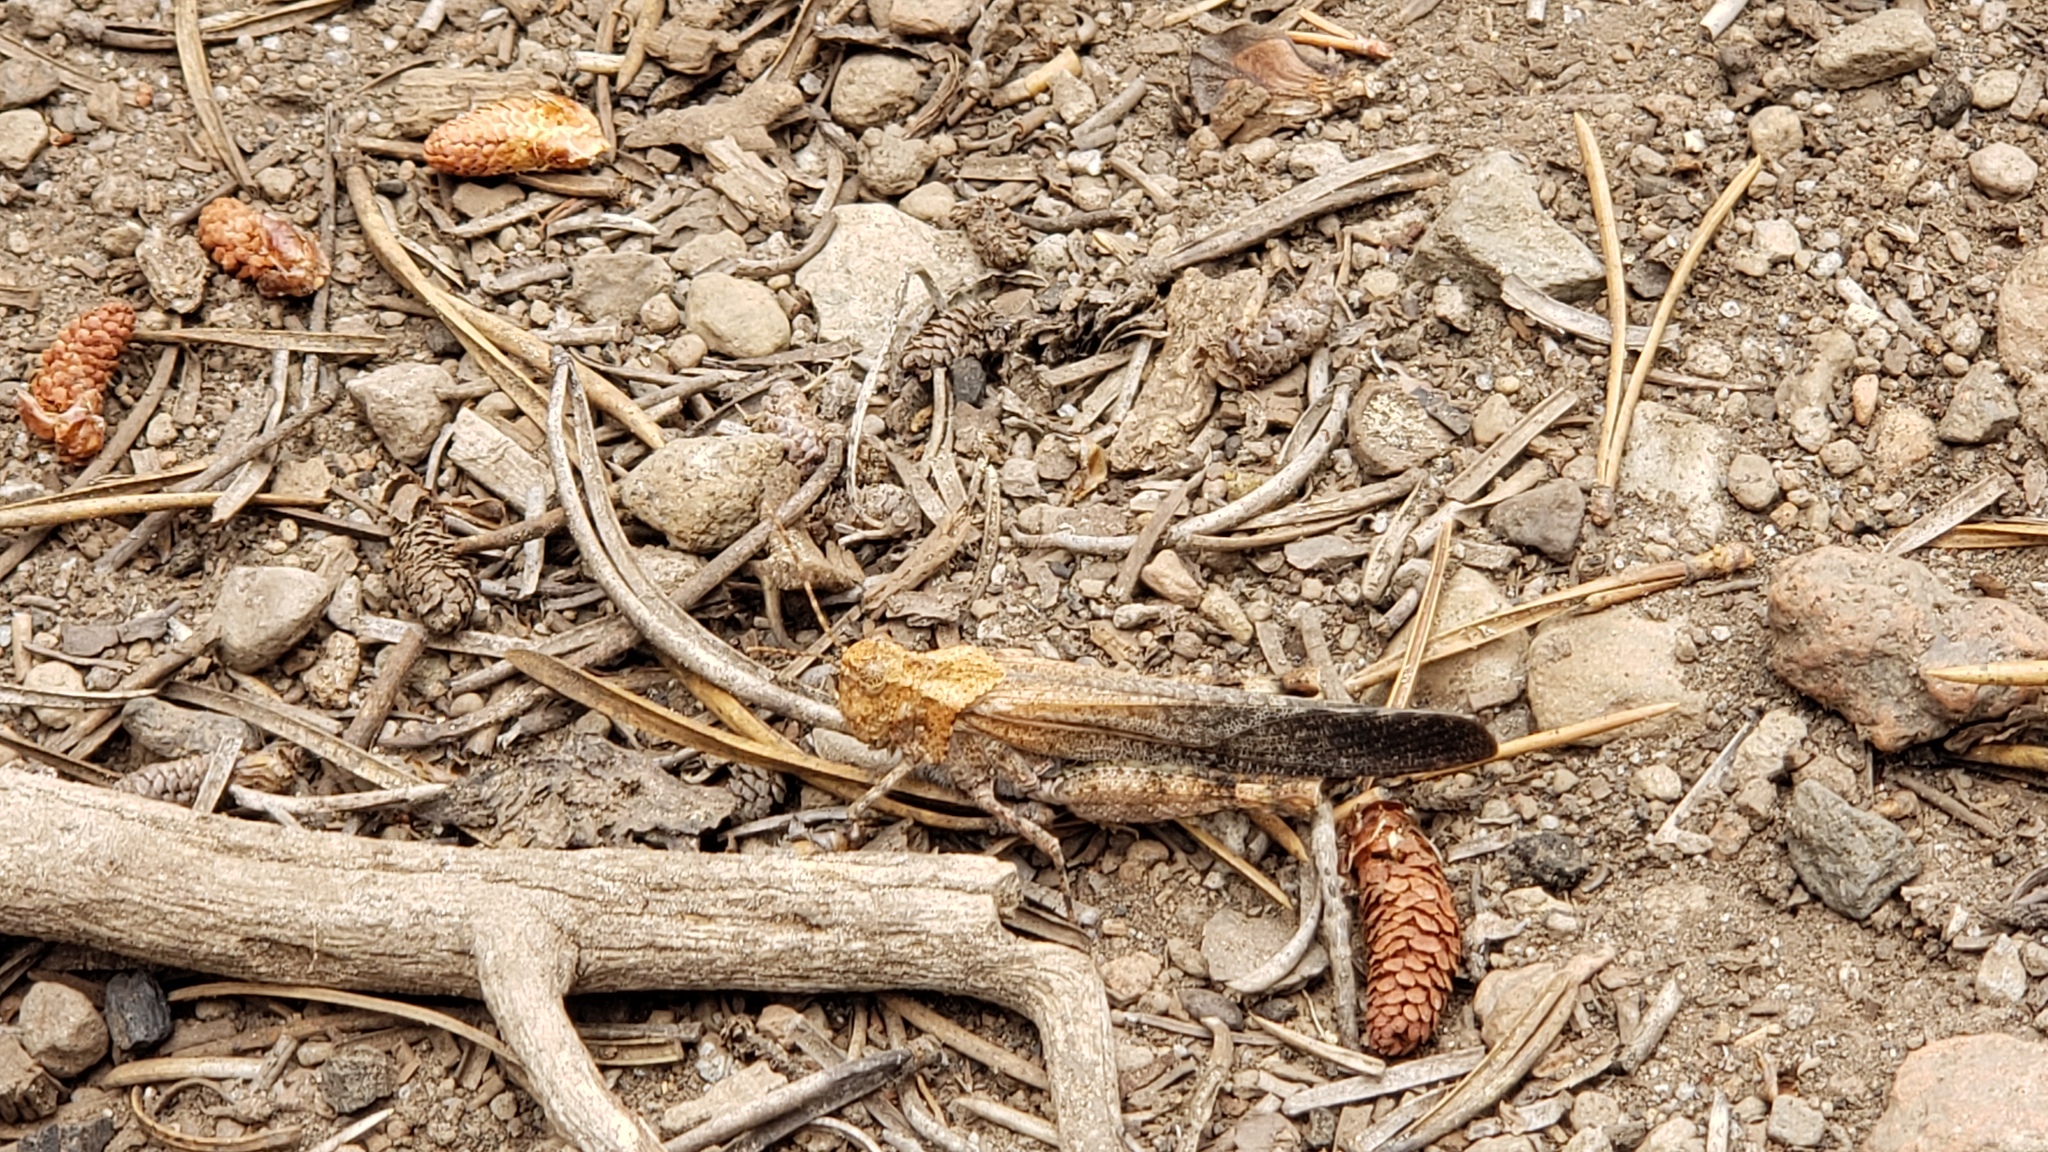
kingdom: Animalia
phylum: Arthropoda
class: Insecta
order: Orthoptera
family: Acrididae
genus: Trimerotropis
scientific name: Trimerotropis verruculata
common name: Crackling forest grasshopper
